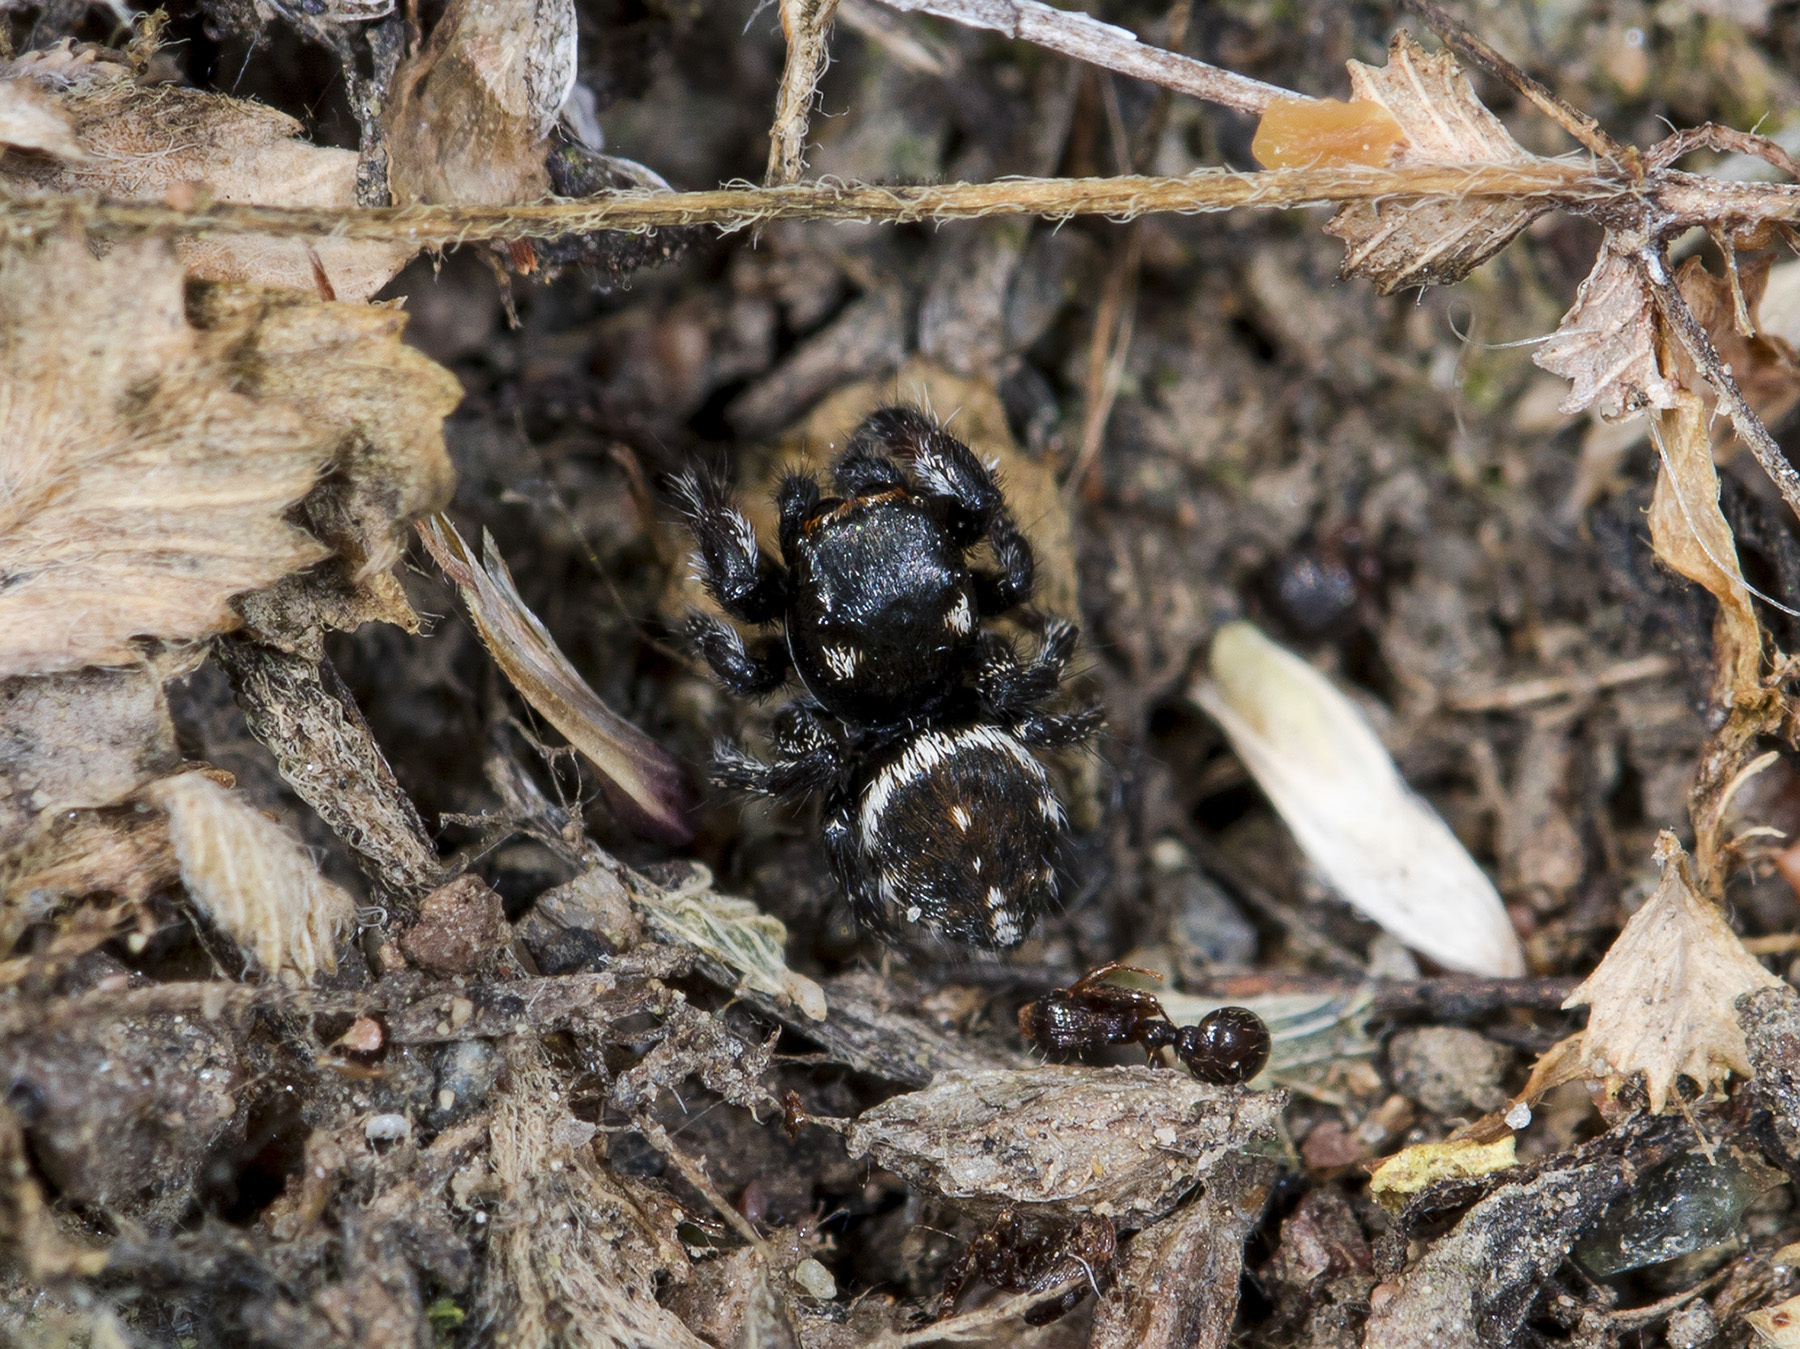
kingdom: Animalia
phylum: Arthropoda
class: Arachnida
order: Araneae
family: Salticidae
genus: Pellenes
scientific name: Pellenes allegrii
